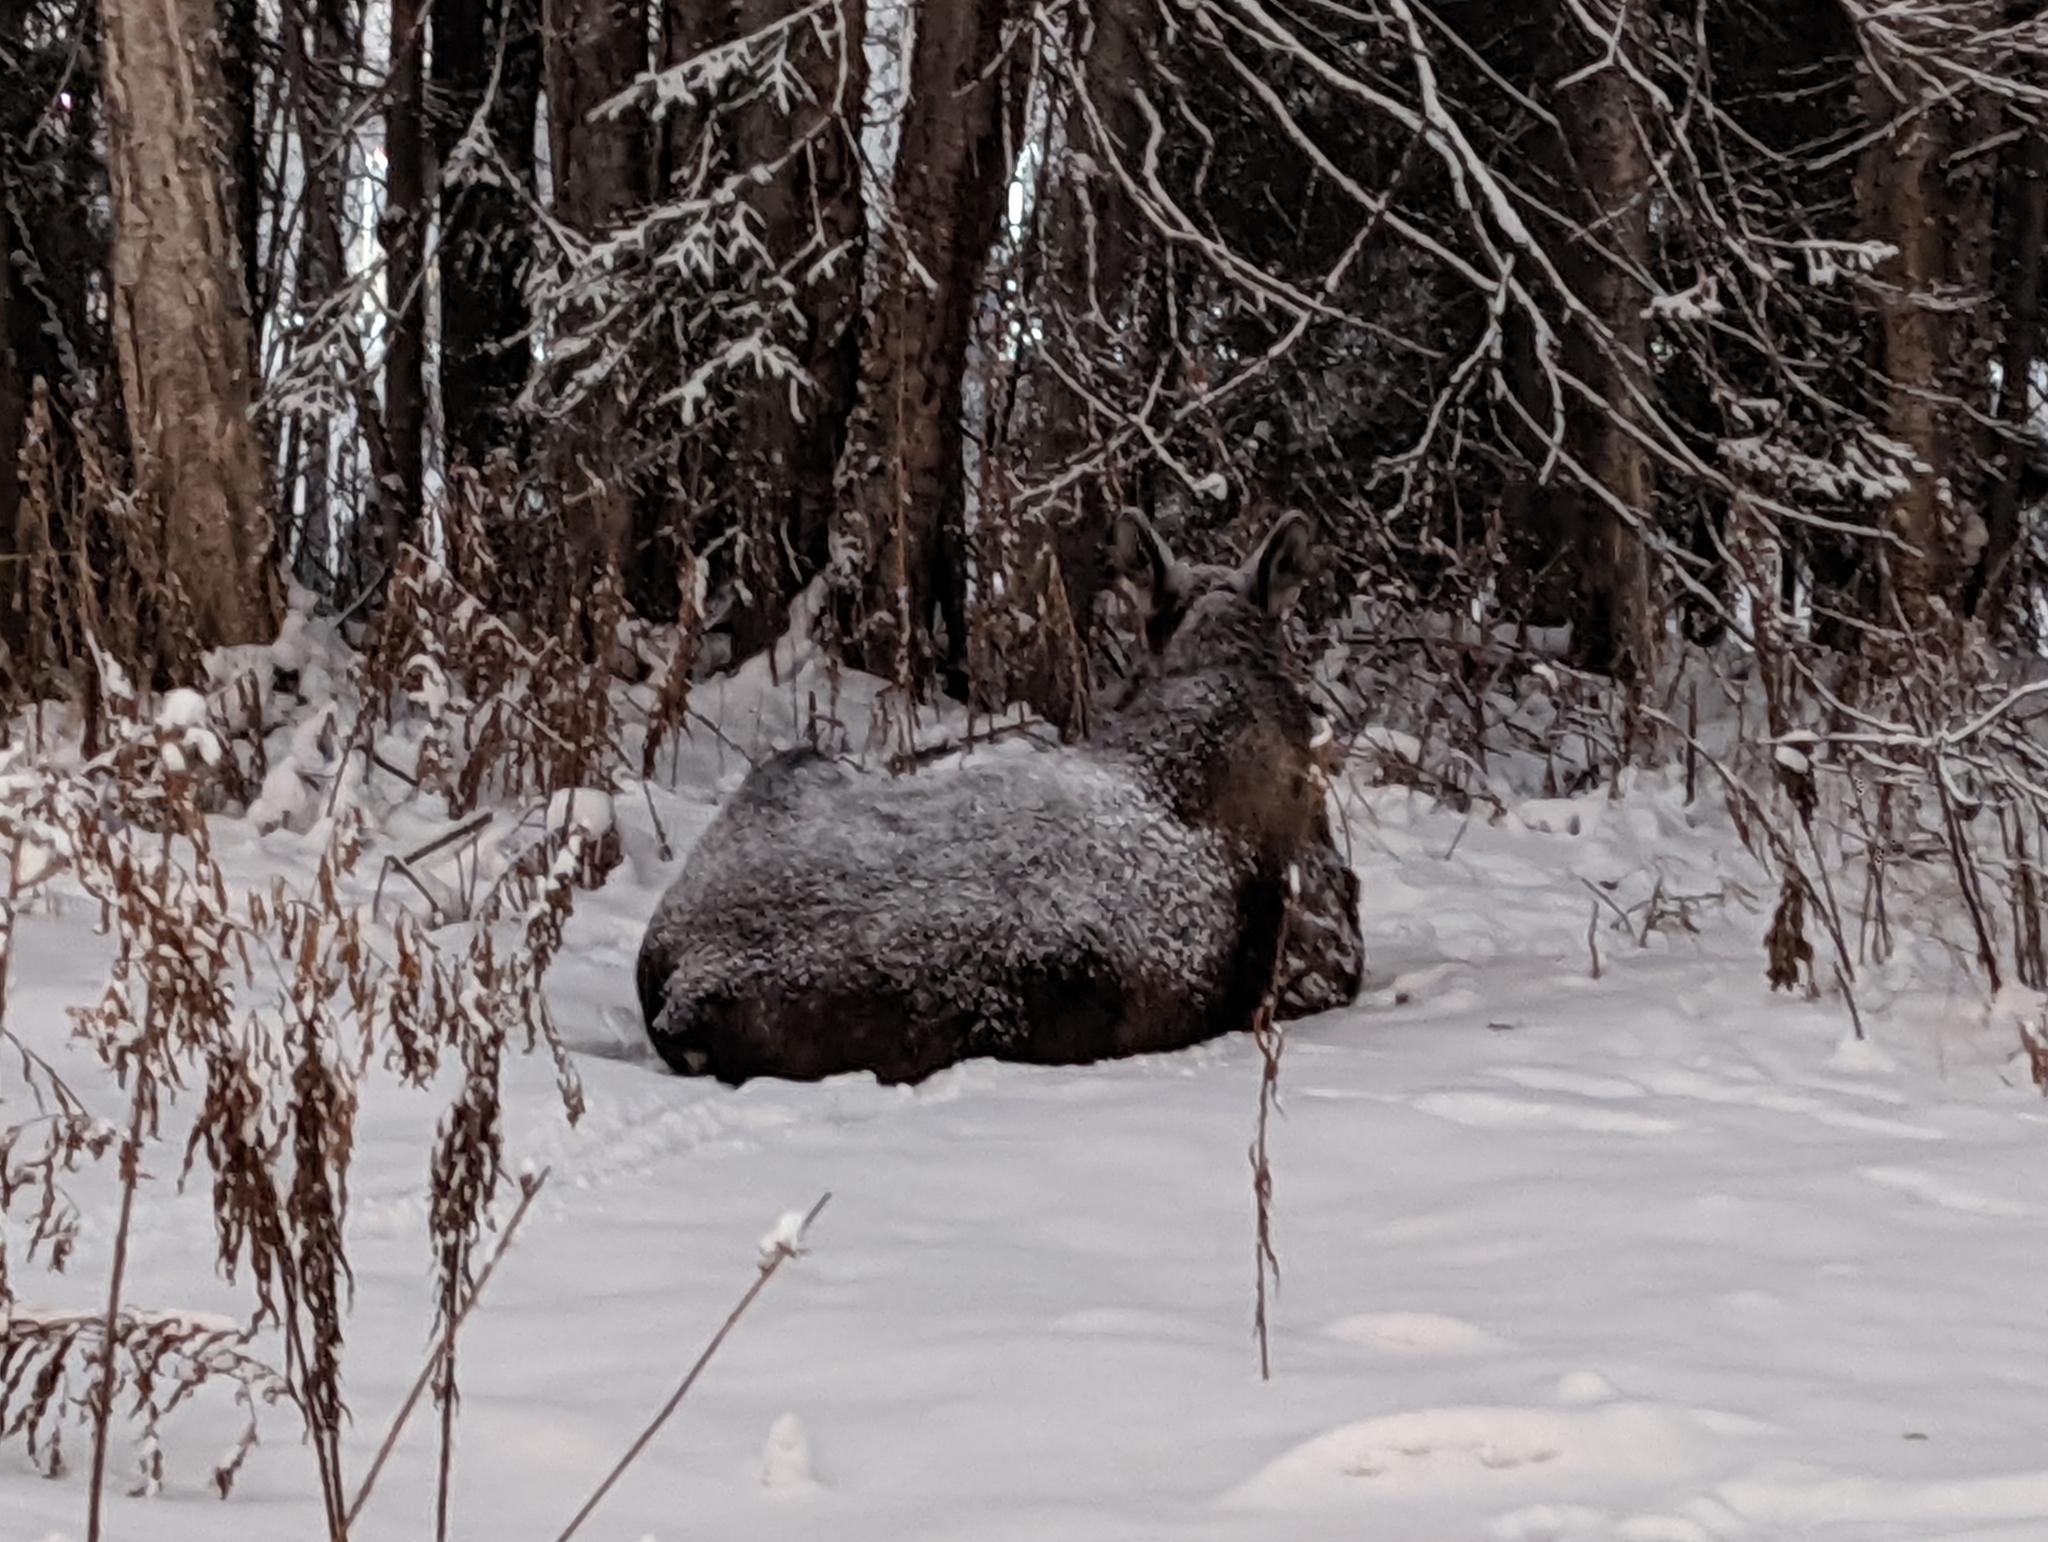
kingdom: Animalia
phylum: Chordata
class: Mammalia
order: Artiodactyla
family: Cervidae
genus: Alces
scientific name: Alces alces
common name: Moose
